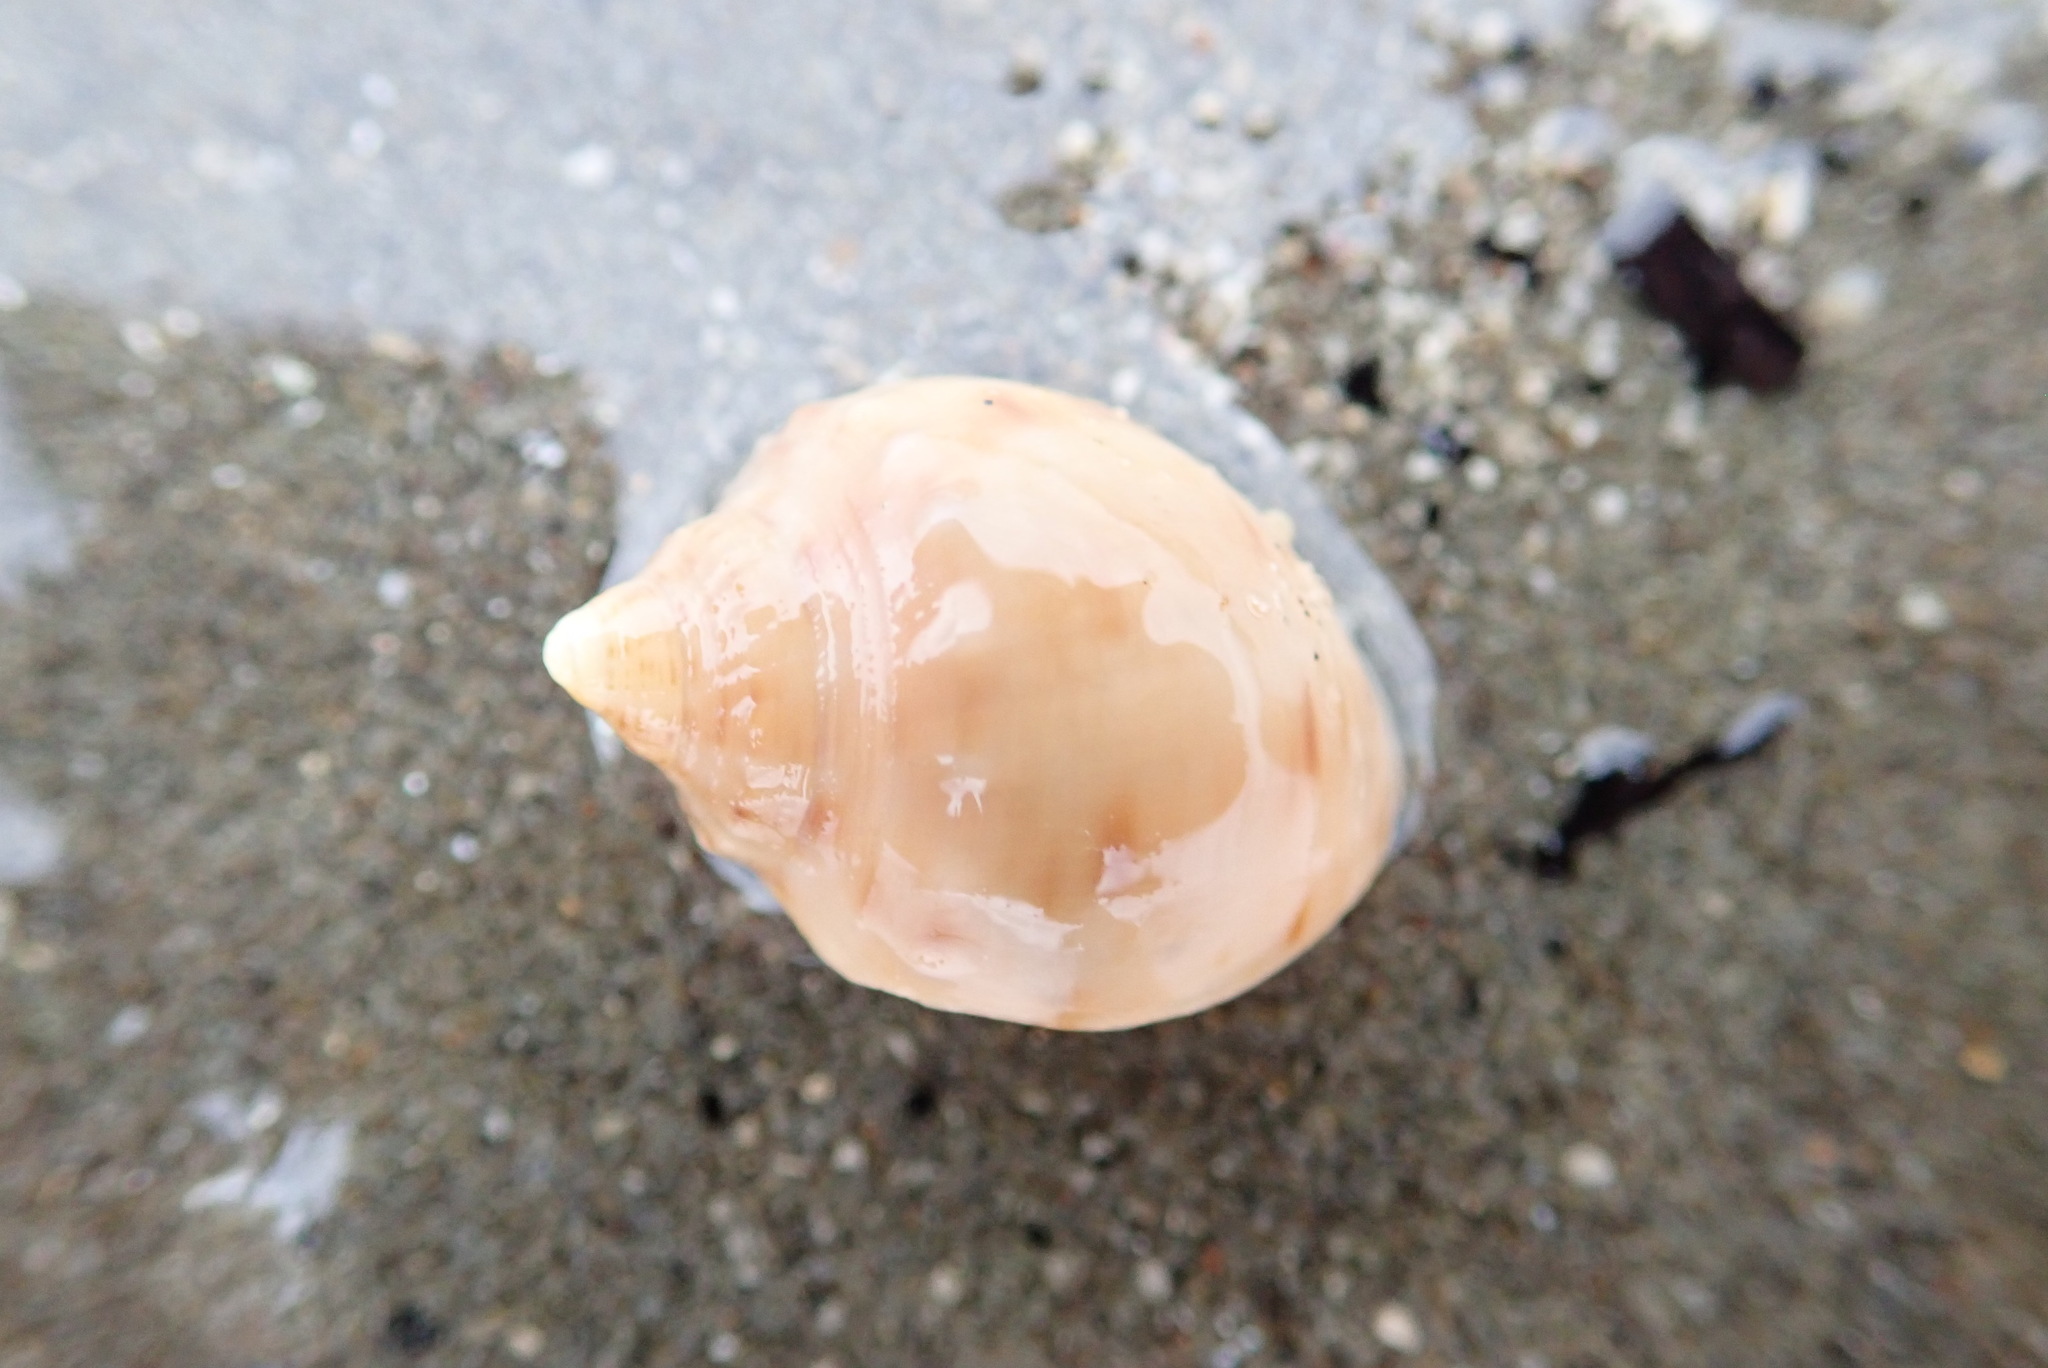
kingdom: Animalia
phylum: Mollusca
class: Gastropoda
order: Littorinimorpha
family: Cassidae
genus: Semicassis
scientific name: Semicassis pyrum
